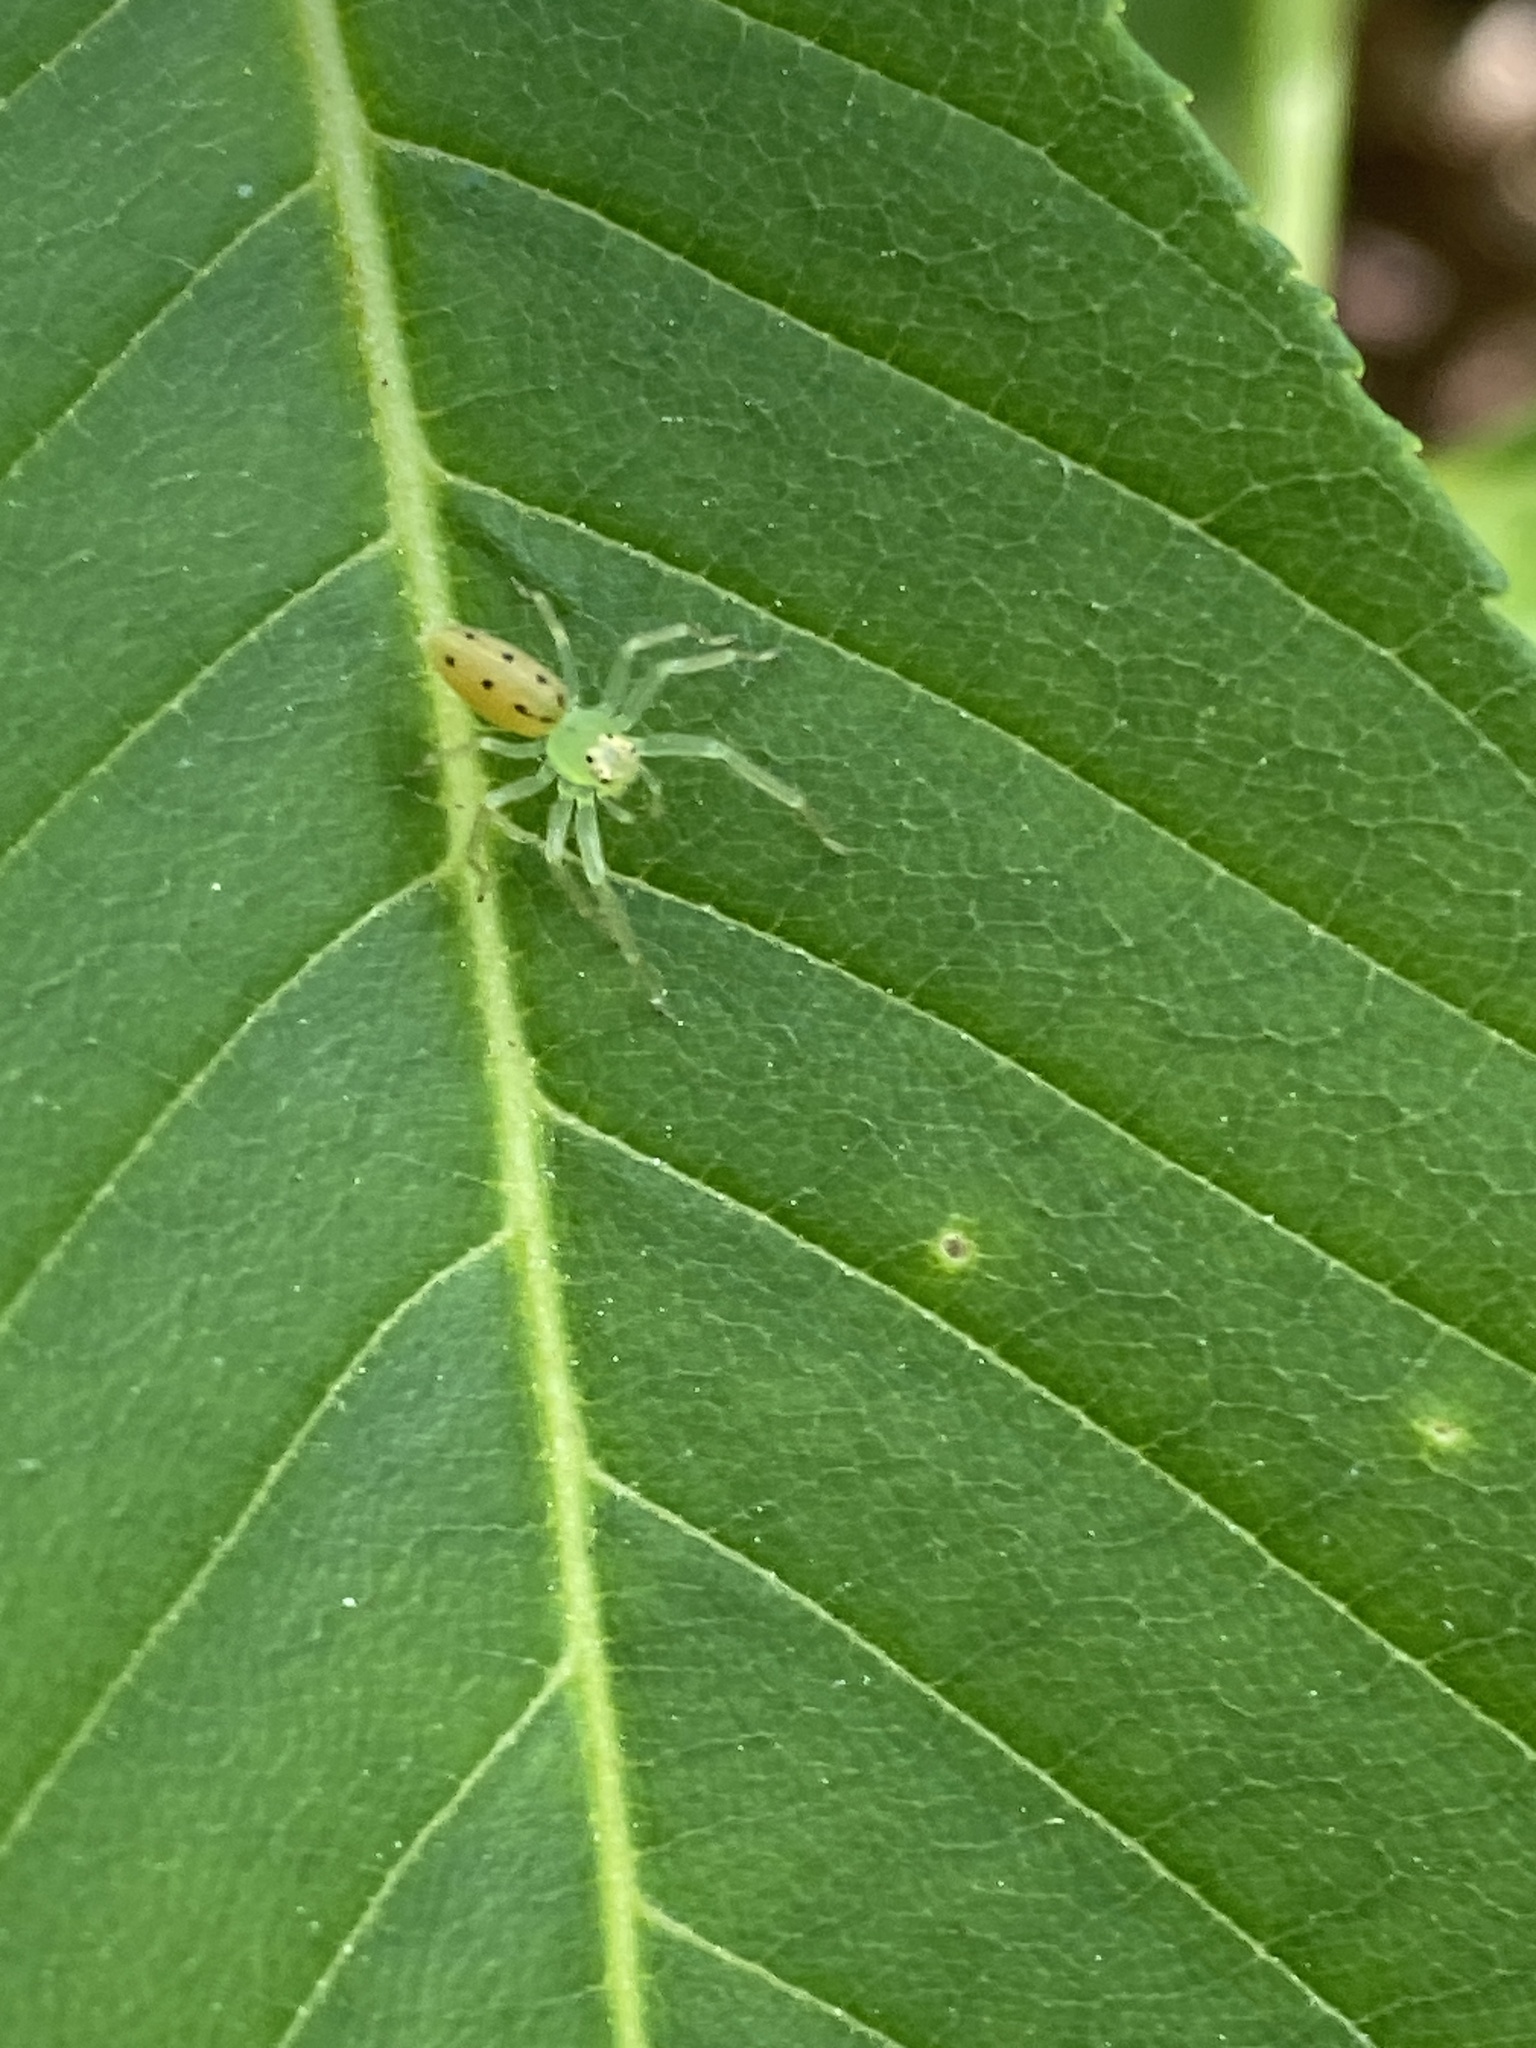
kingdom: Animalia
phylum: Arthropoda
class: Arachnida
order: Araneae
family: Salticidae
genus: Lyssomanes
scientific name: Lyssomanes viridis
